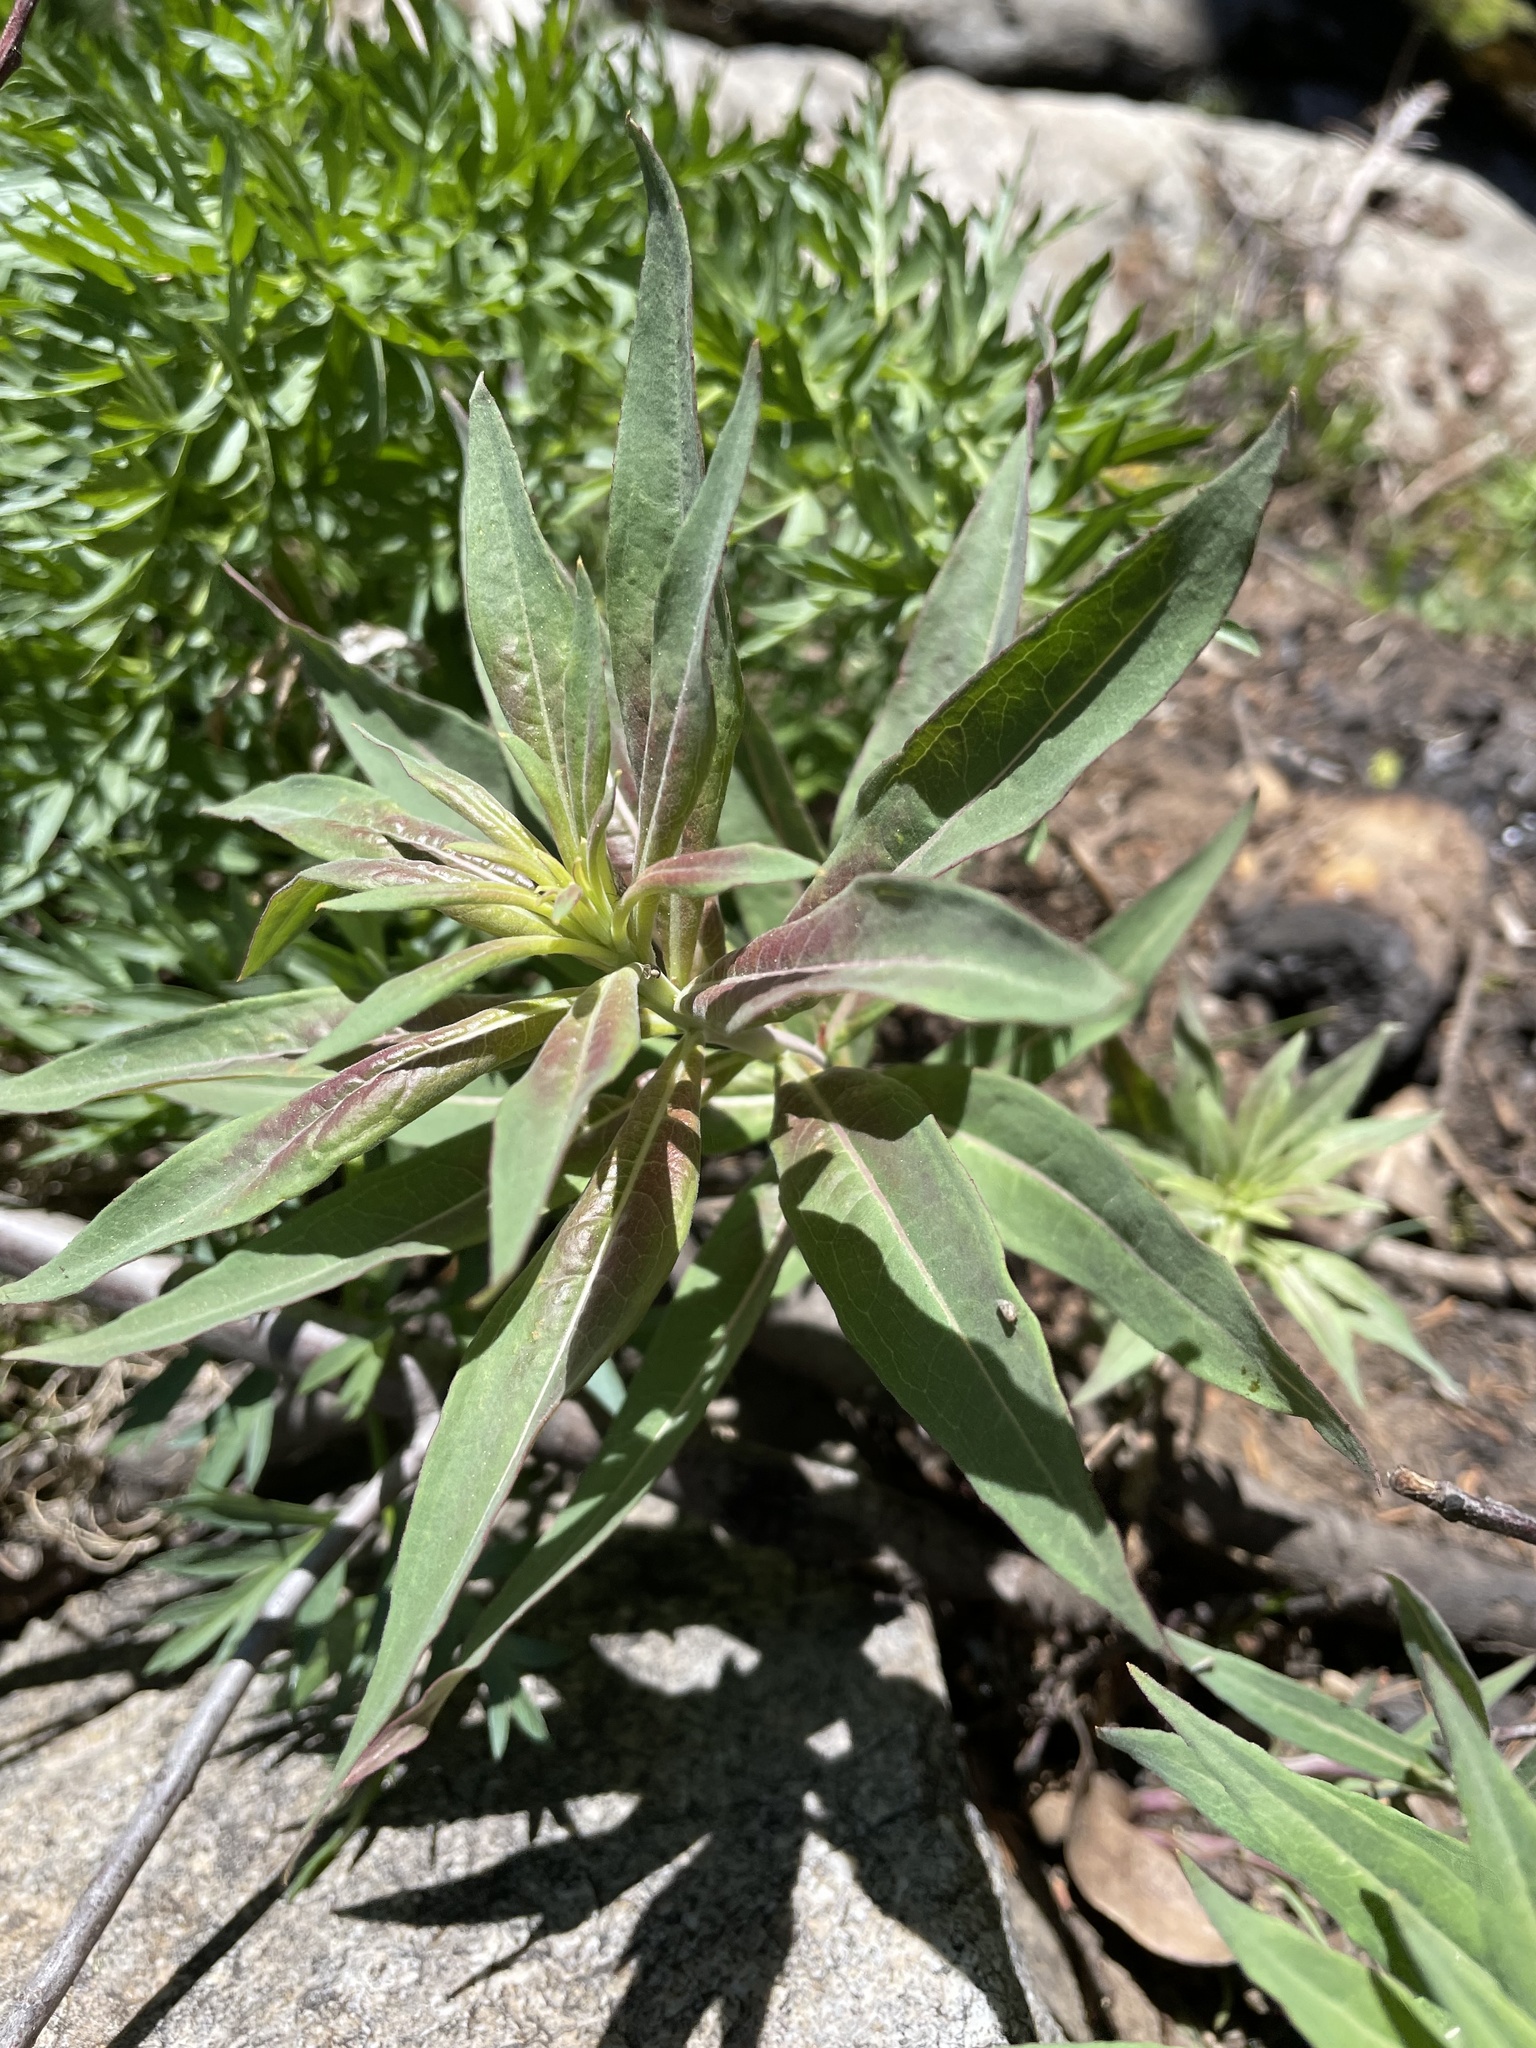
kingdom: Plantae
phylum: Tracheophyta
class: Magnoliopsida
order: Myrtales
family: Onagraceae
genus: Chamaenerion
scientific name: Chamaenerion angustifolium
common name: Fireweed
